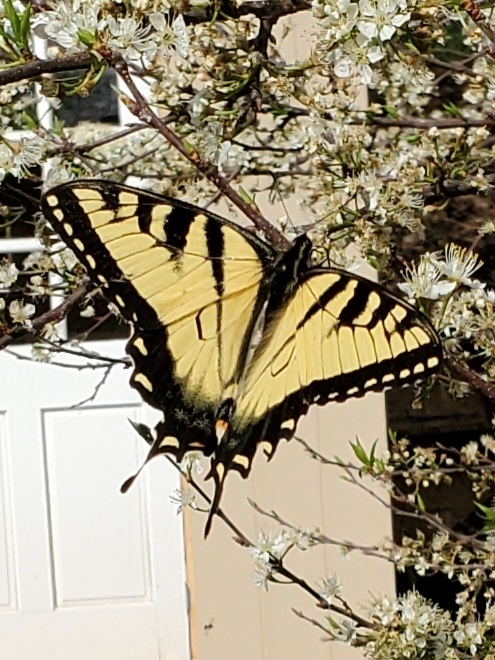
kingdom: Animalia
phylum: Arthropoda
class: Insecta
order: Lepidoptera
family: Papilionidae
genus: Papilio
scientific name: Papilio glaucus
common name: Tiger swallowtail
